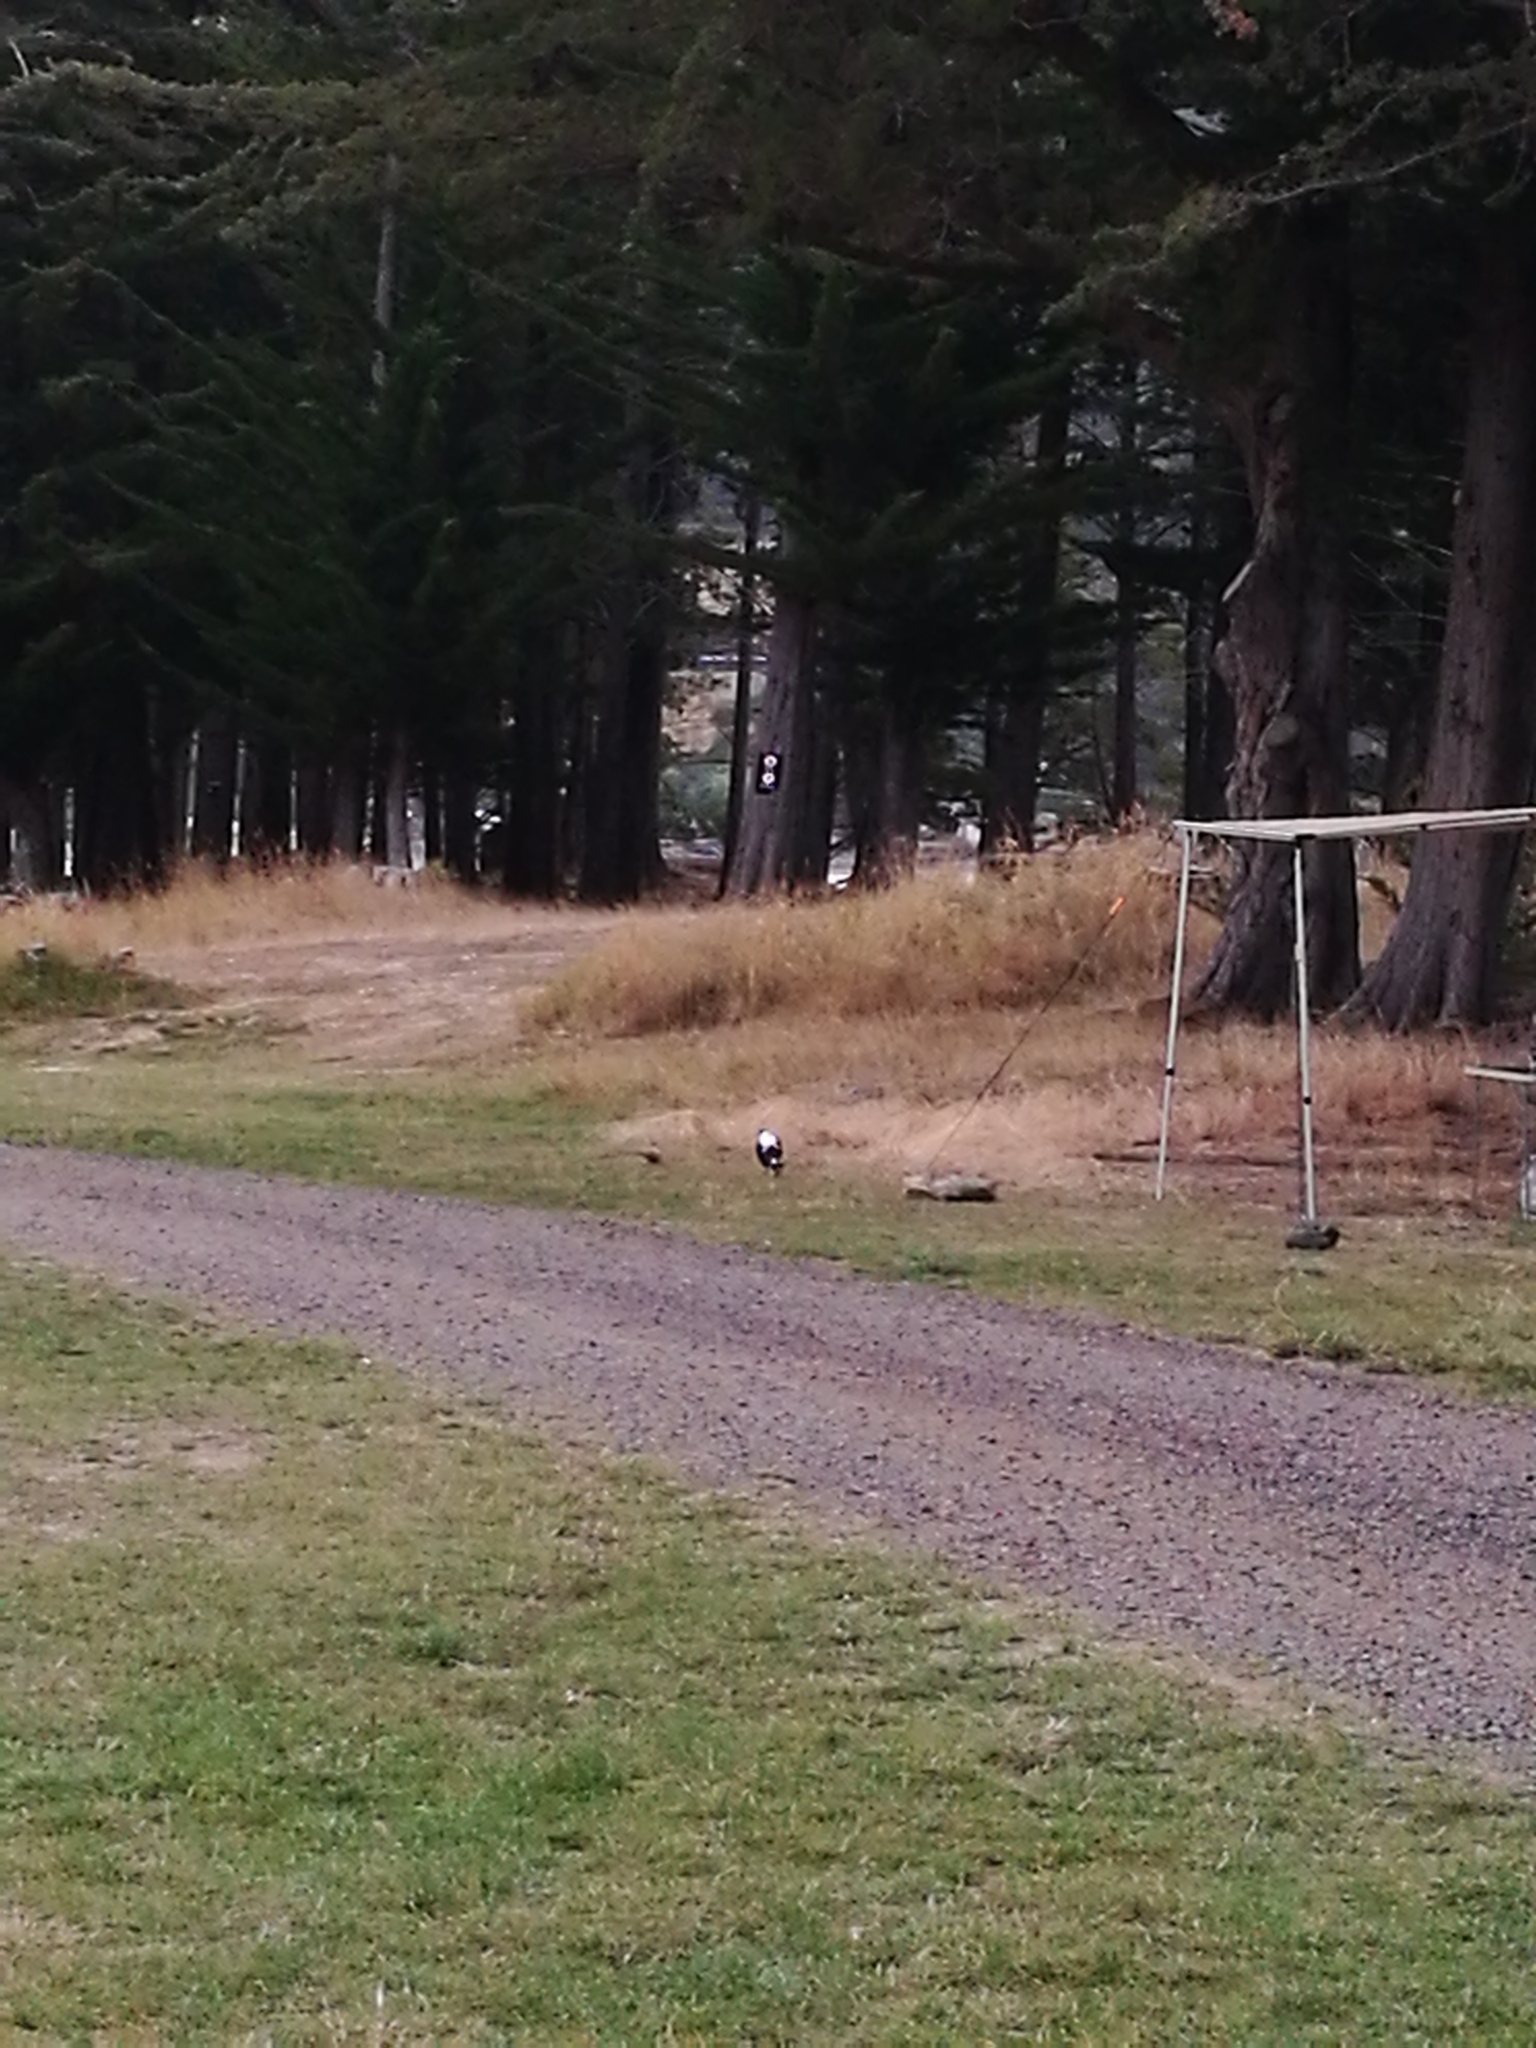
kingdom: Animalia
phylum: Chordata
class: Aves
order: Passeriformes
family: Cracticidae
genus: Gymnorhina
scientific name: Gymnorhina tibicen
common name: Australian magpie
